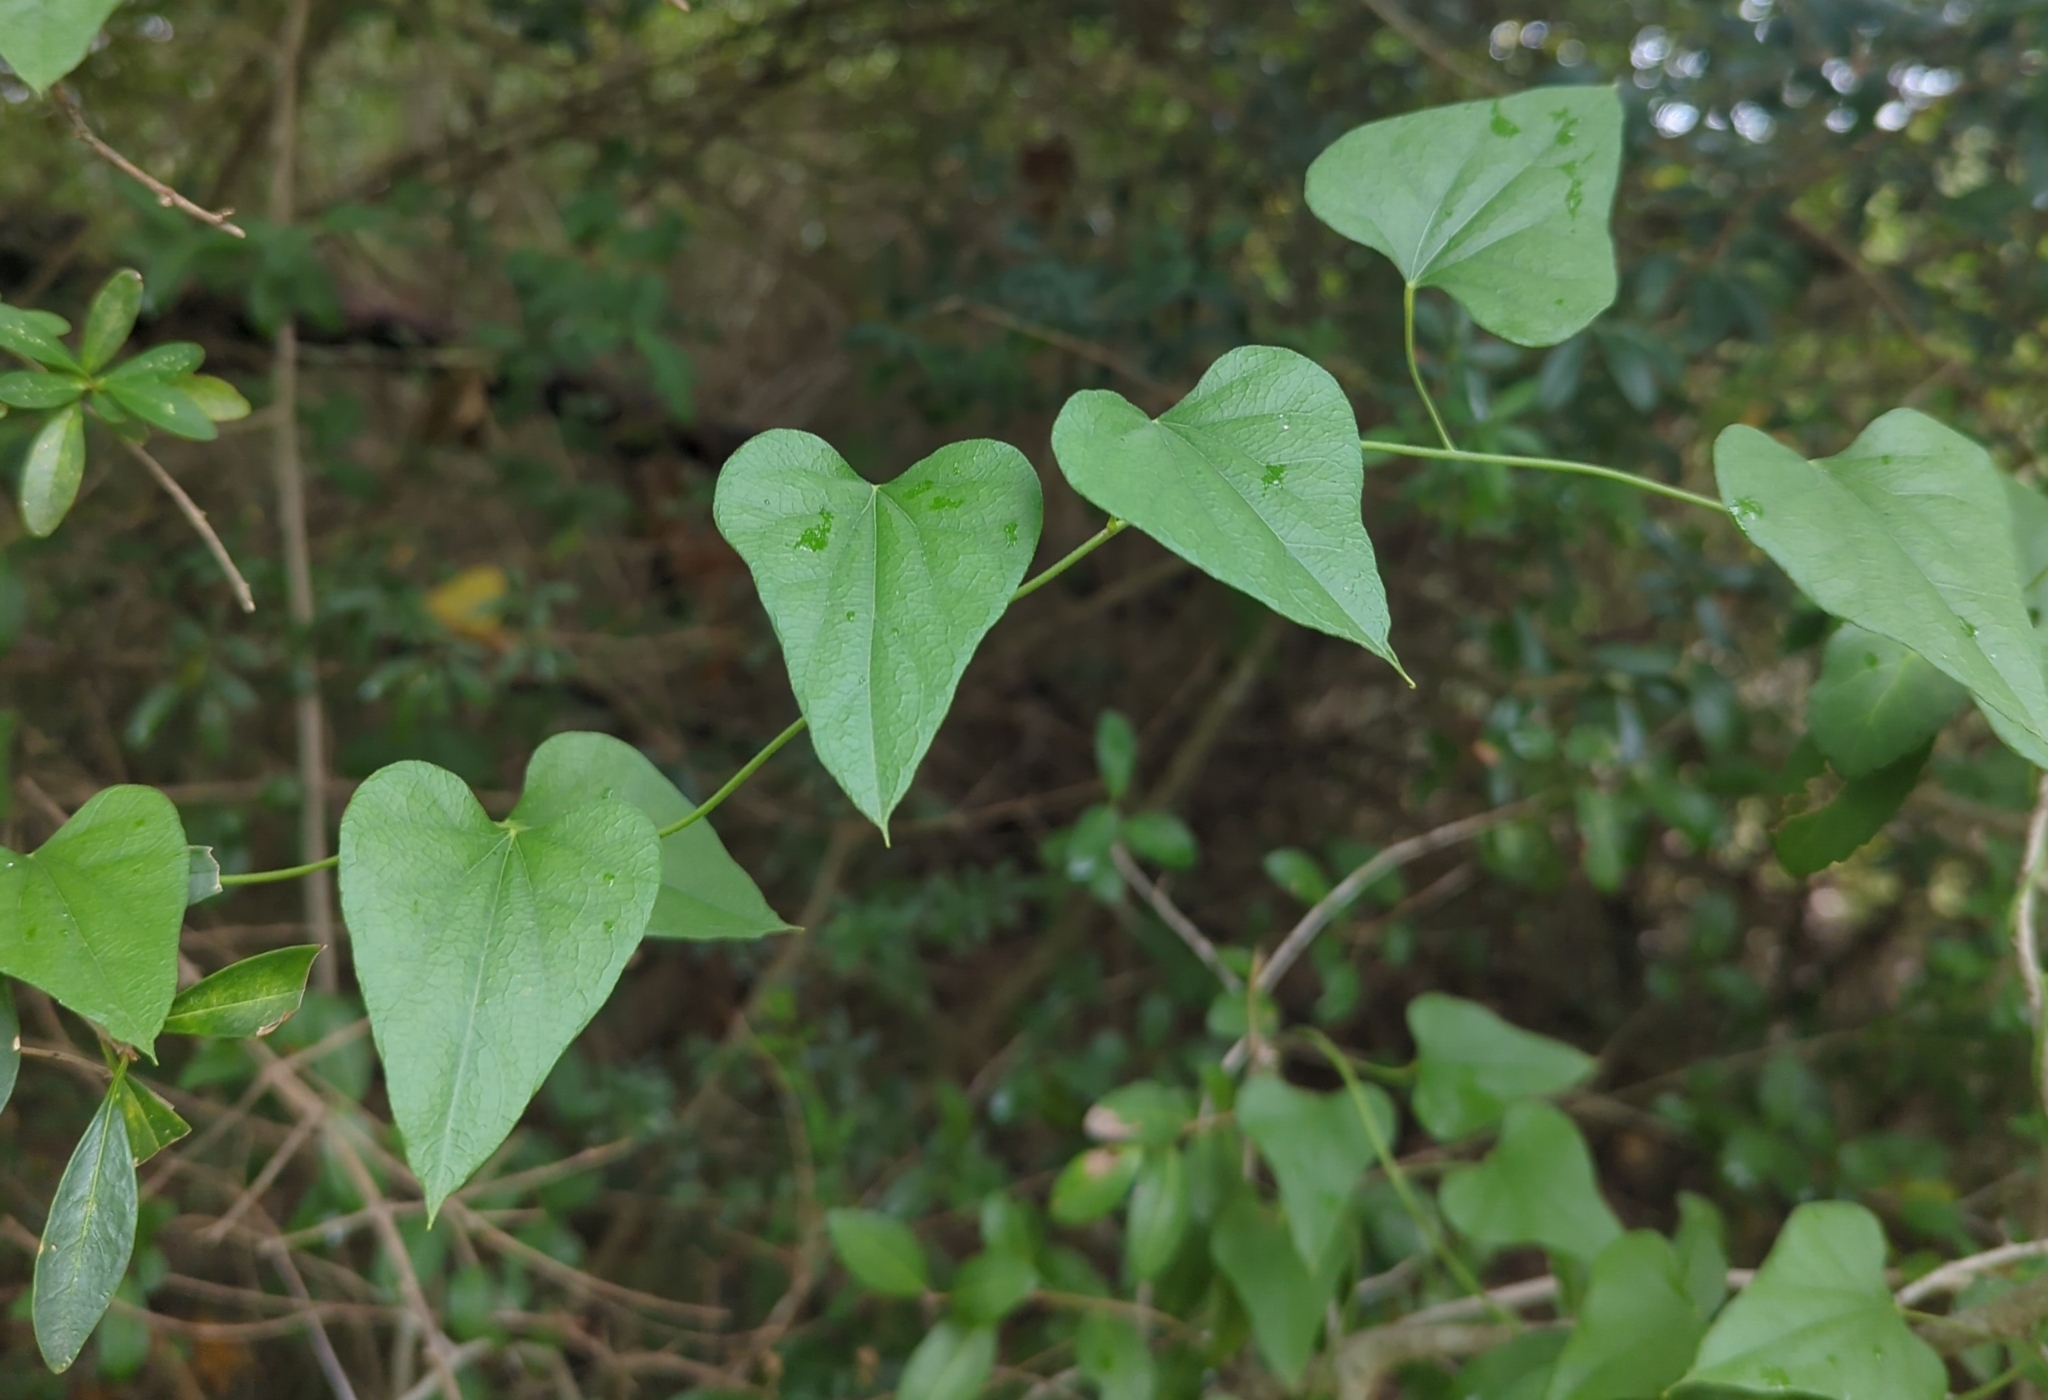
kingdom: Plantae
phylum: Tracheophyta
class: Magnoliopsida
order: Ranunculales
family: Menispermaceae
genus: Cocculus
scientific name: Cocculus carolinus
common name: Carolina moonseed
